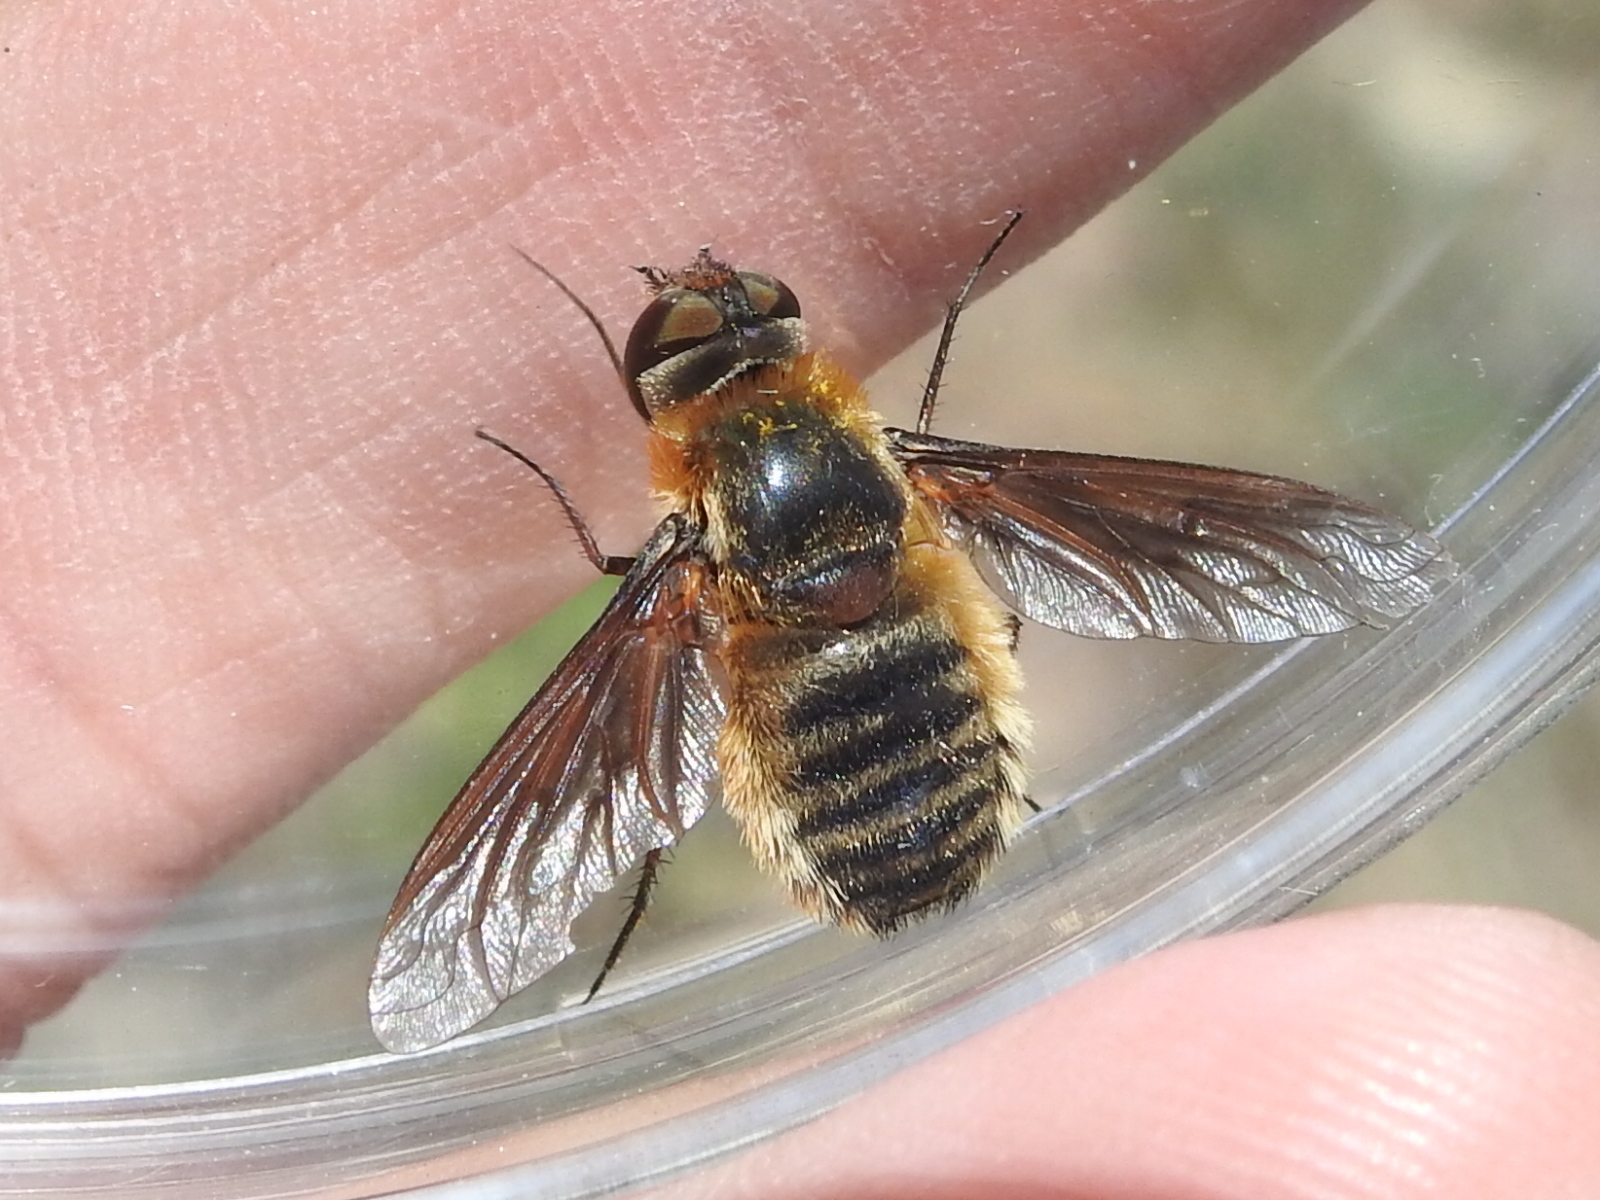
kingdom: Animalia
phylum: Arthropoda
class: Insecta
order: Diptera
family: Bombyliidae
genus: Poecilanthrax
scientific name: Poecilanthrax lucifer
